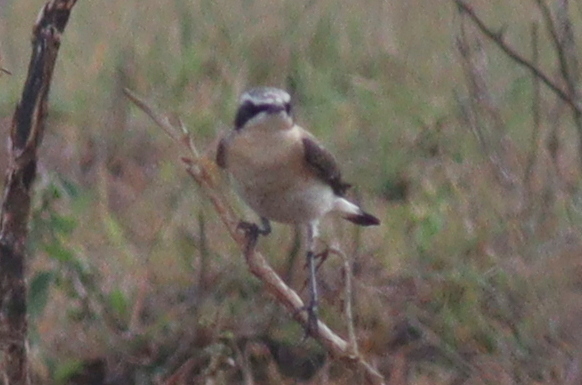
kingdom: Animalia
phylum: Chordata
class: Aves
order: Passeriformes
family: Muscicapidae
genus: Oenanthe
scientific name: Oenanthe oenanthe
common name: Northern wheatear
